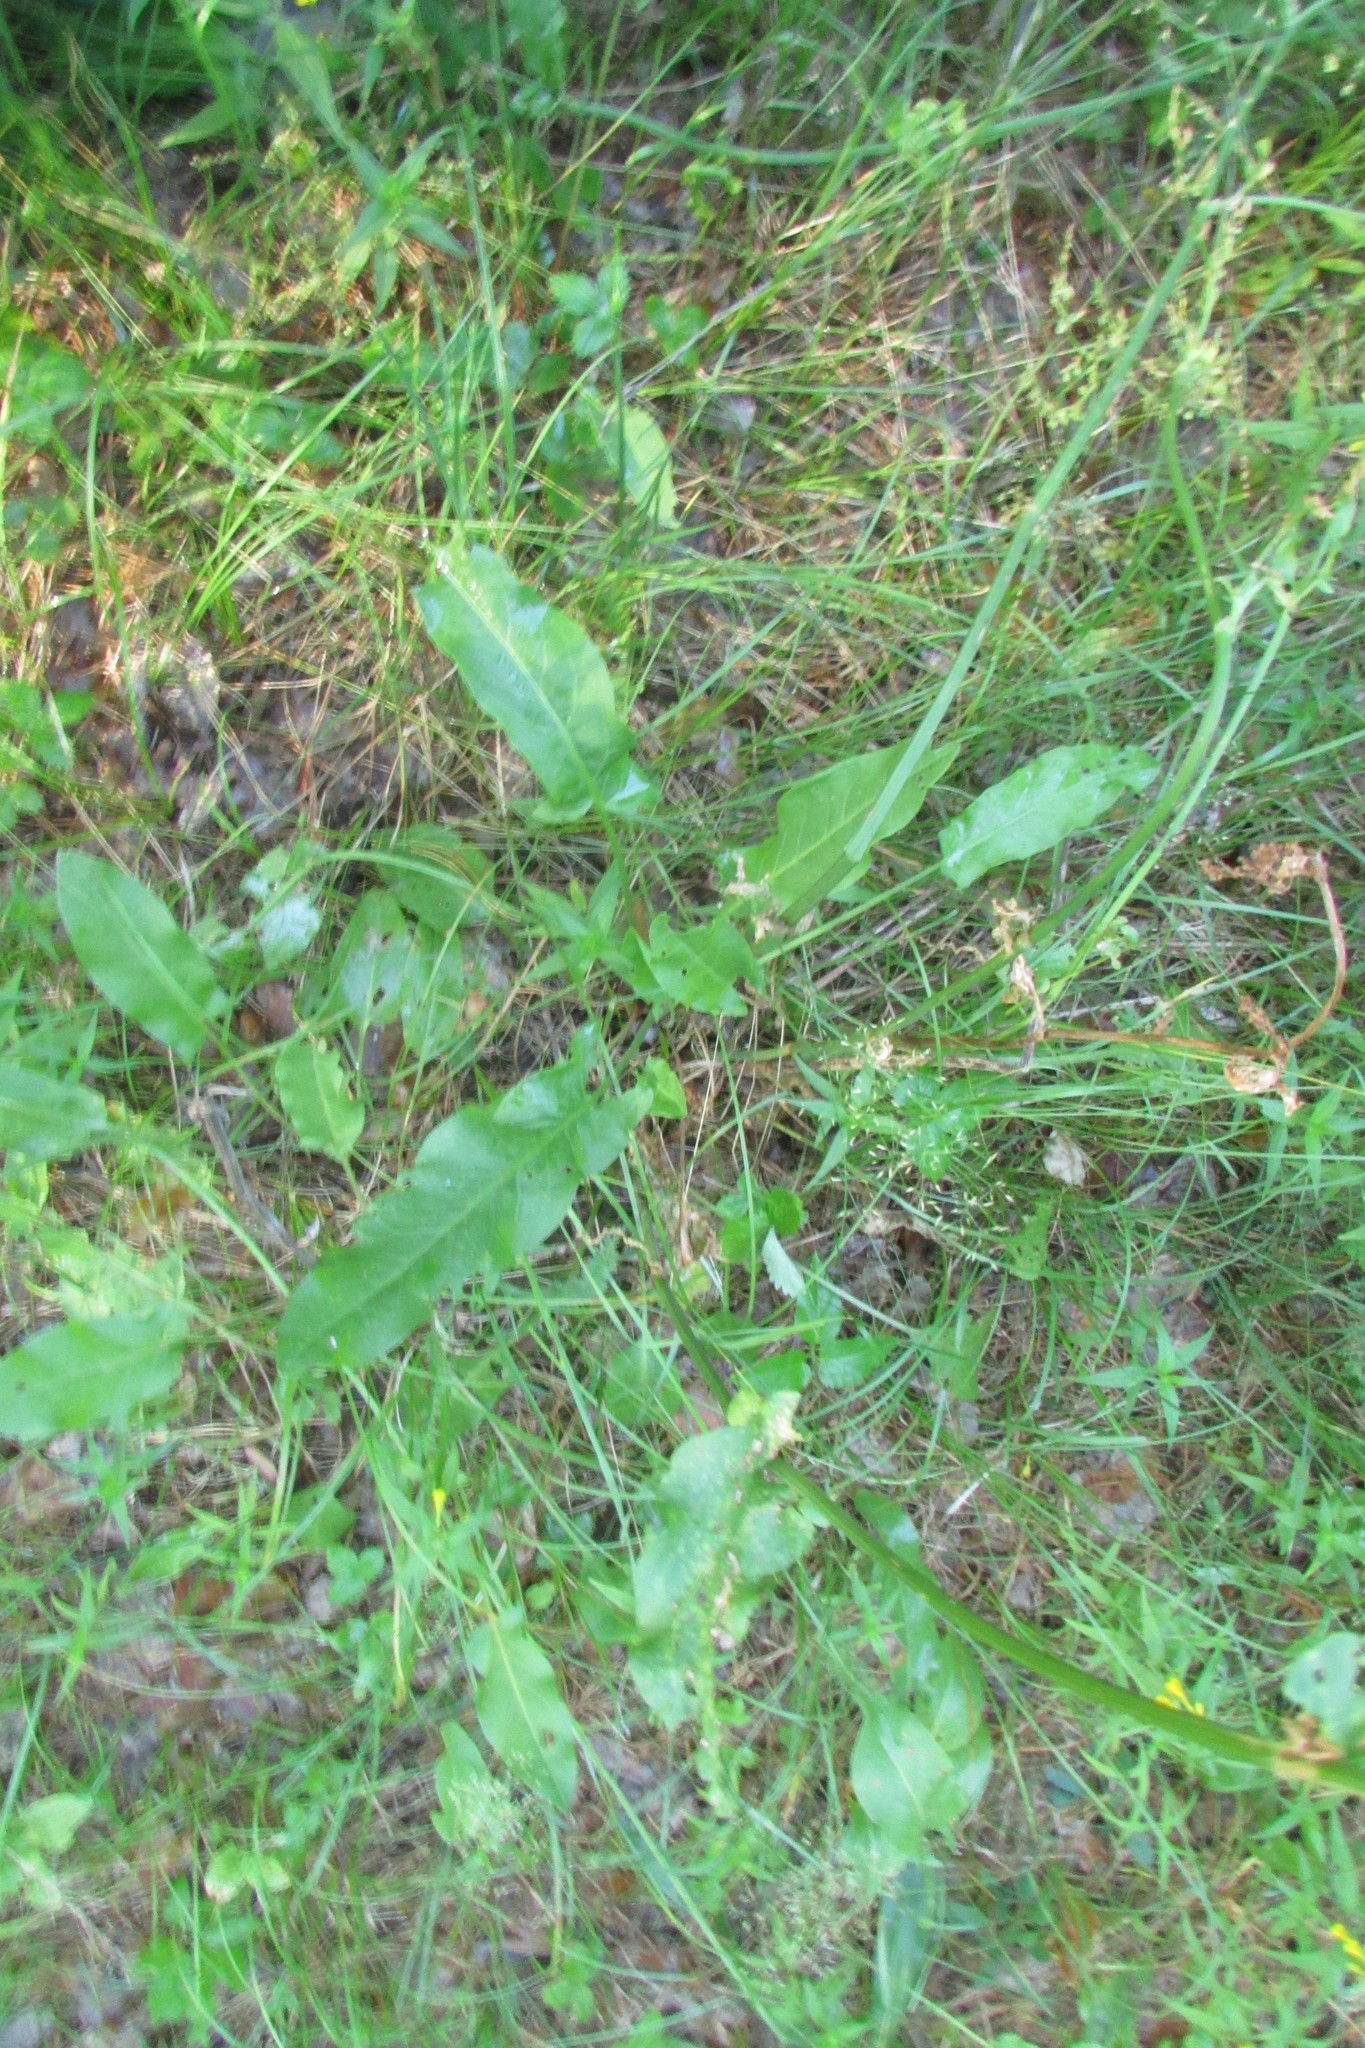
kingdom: Plantae
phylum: Tracheophyta
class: Magnoliopsida
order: Caryophyllales
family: Polygonaceae
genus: Rumex
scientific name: Rumex thyrsiflorus
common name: Garden sorrel
